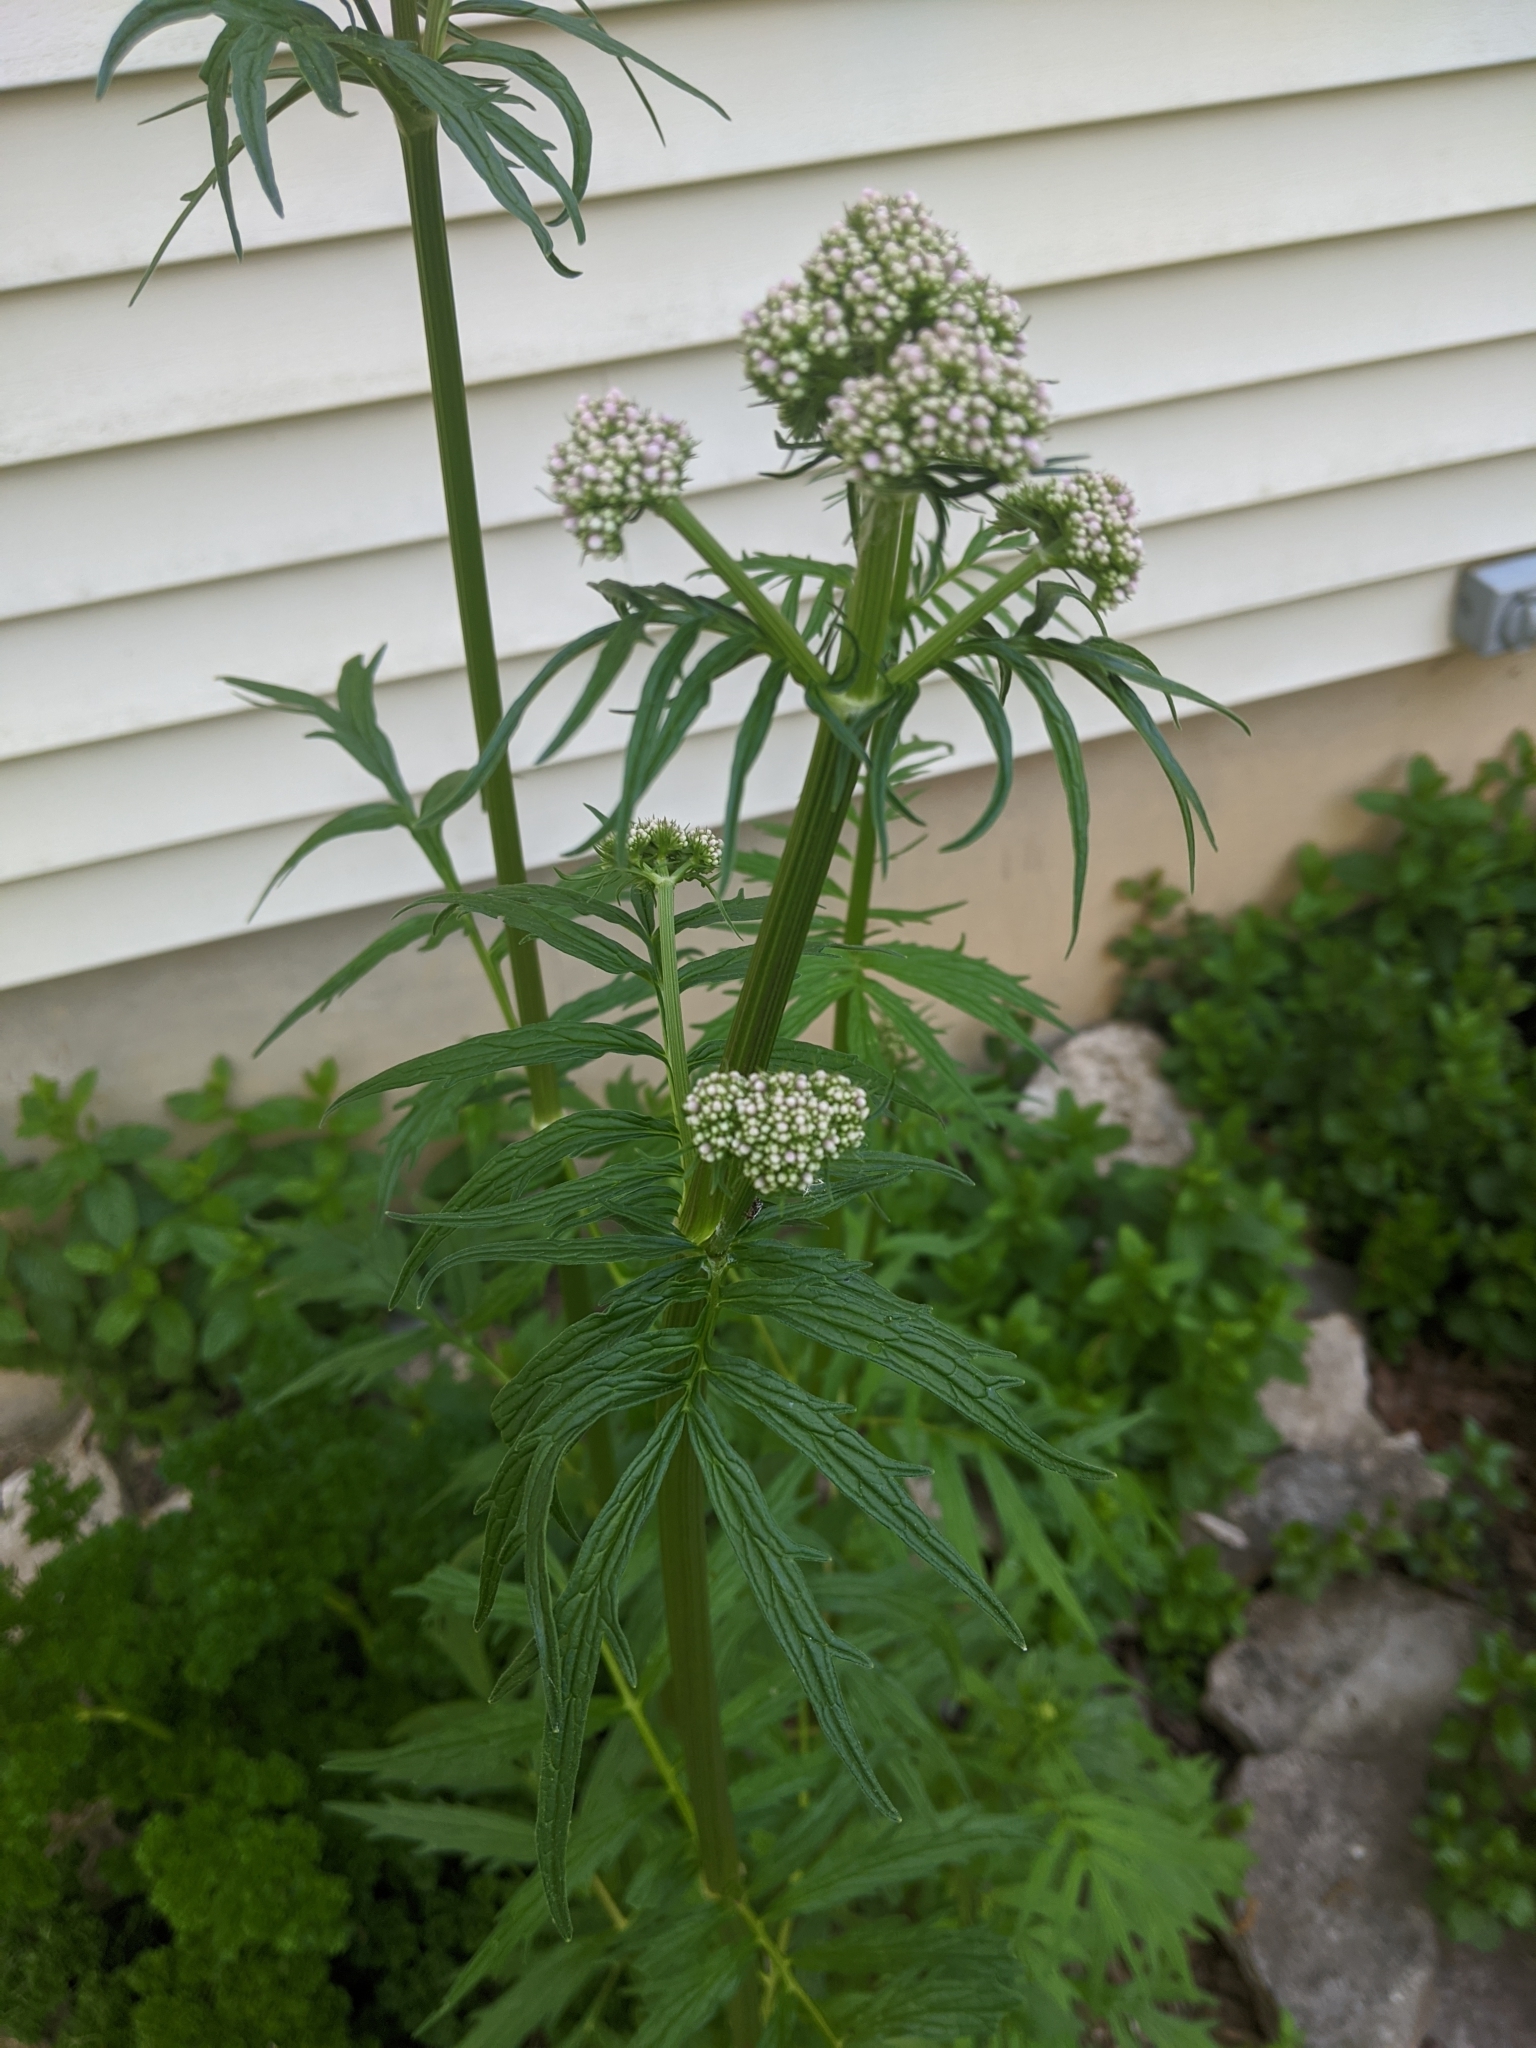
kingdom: Plantae
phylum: Tracheophyta
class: Magnoliopsida
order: Dipsacales
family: Caprifoliaceae
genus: Valeriana
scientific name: Valeriana officinalis
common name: Common valerian
